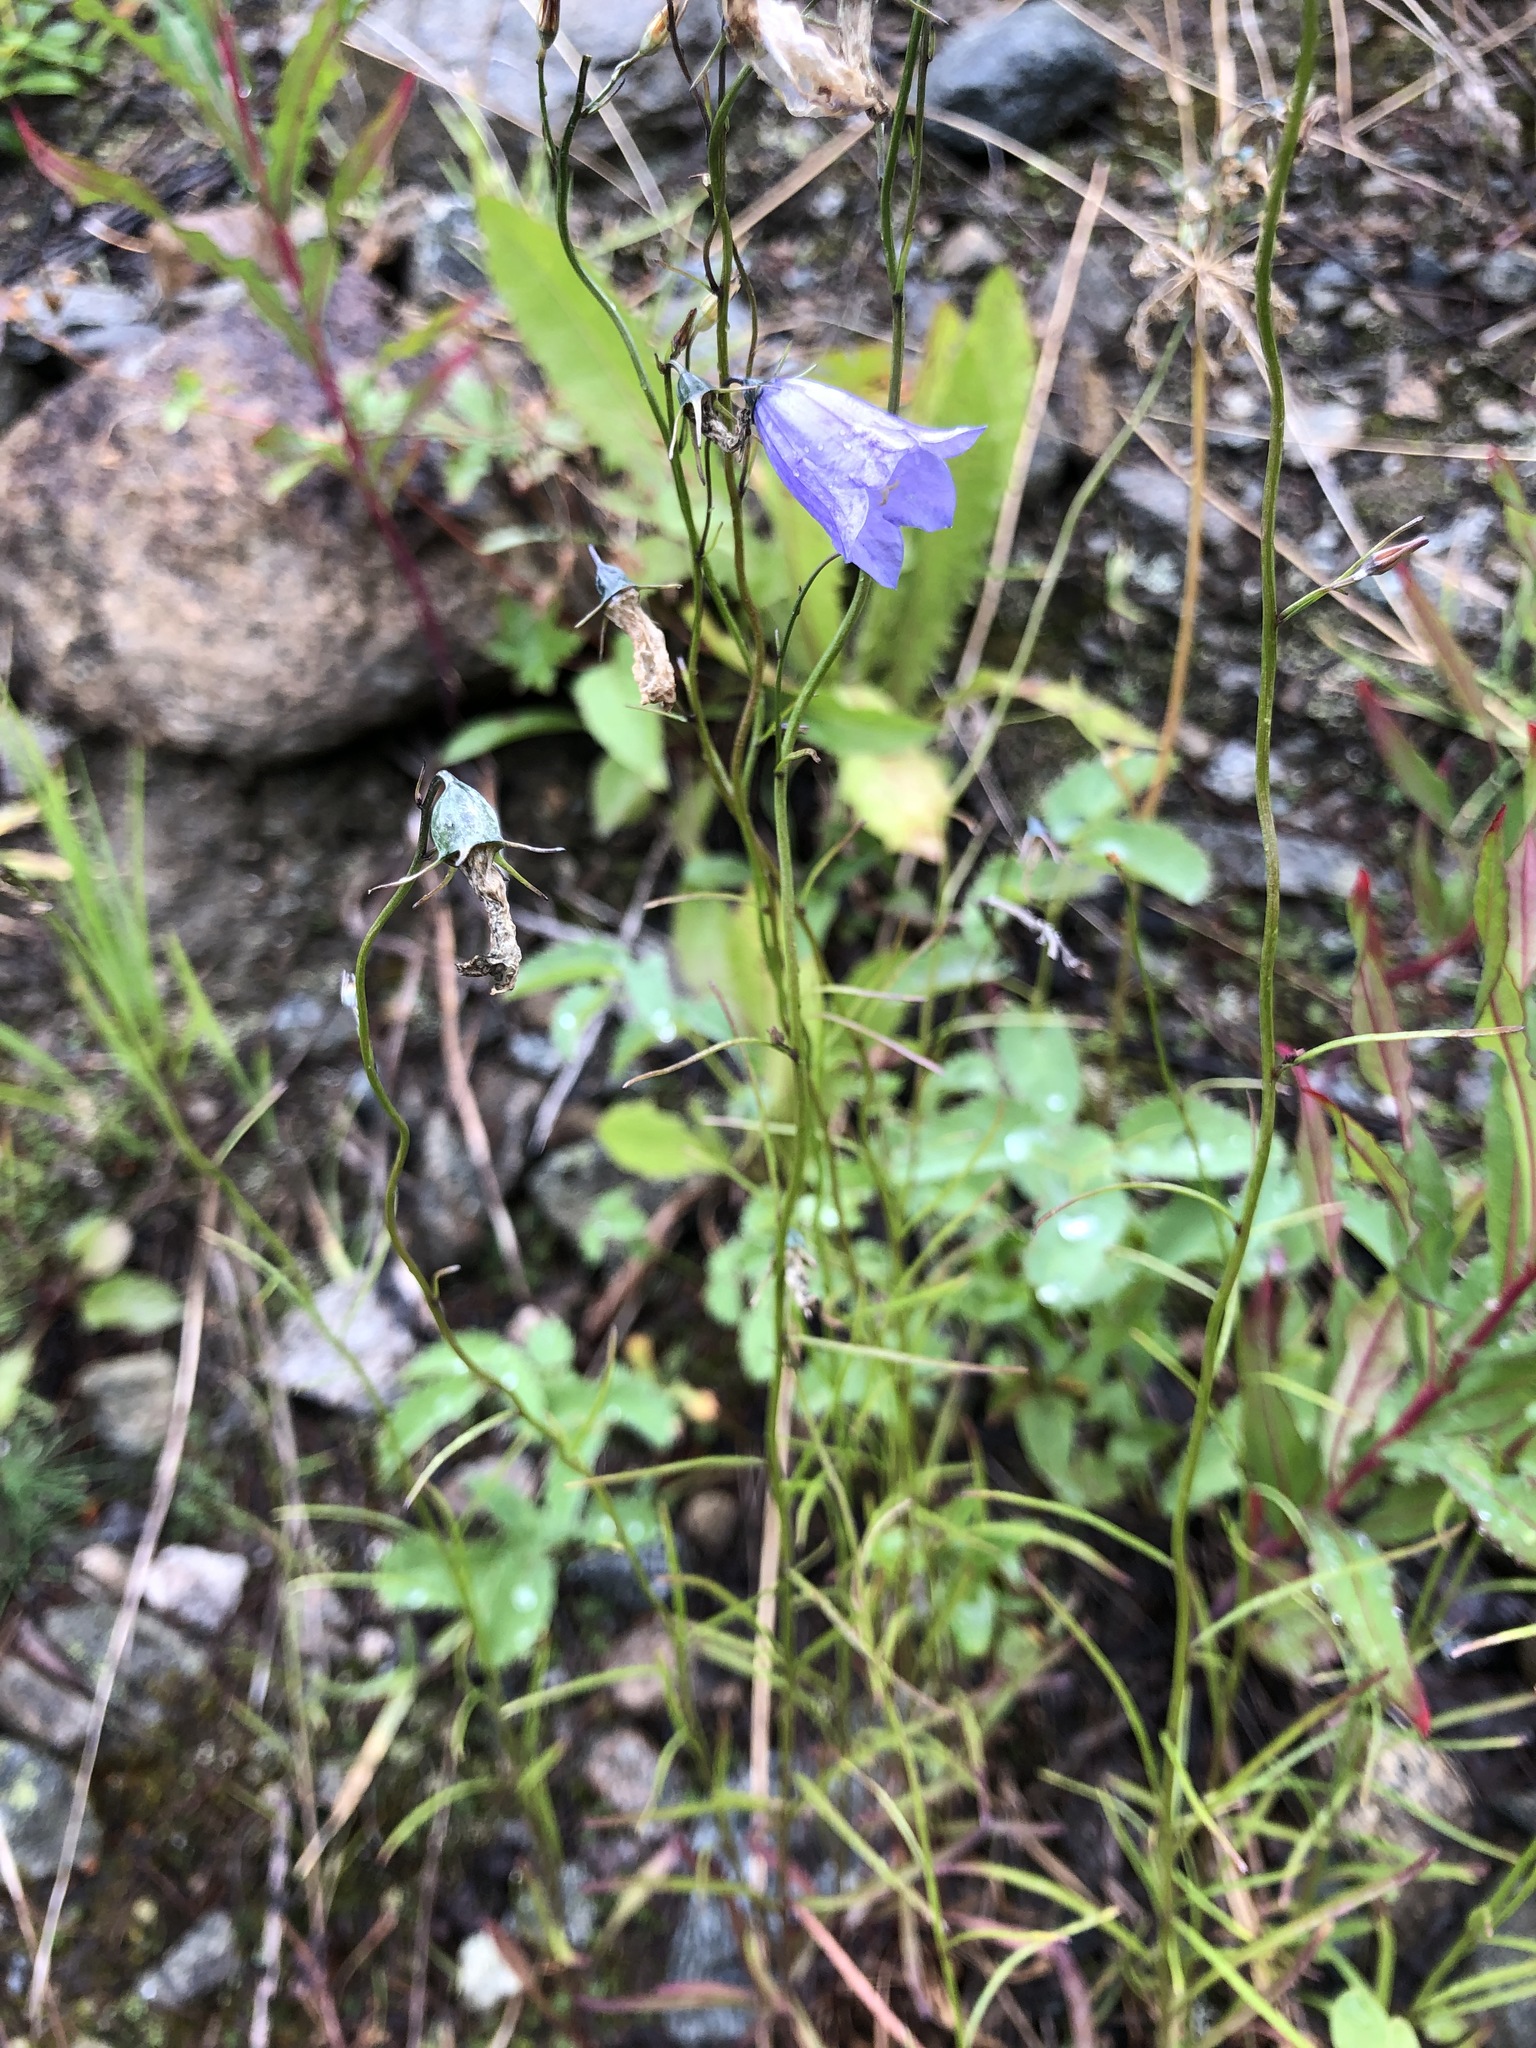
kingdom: Plantae
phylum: Tracheophyta
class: Magnoliopsida
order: Asterales
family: Campanulaceae
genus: Campanula
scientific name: Campanula rotundifolia
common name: Harebell
